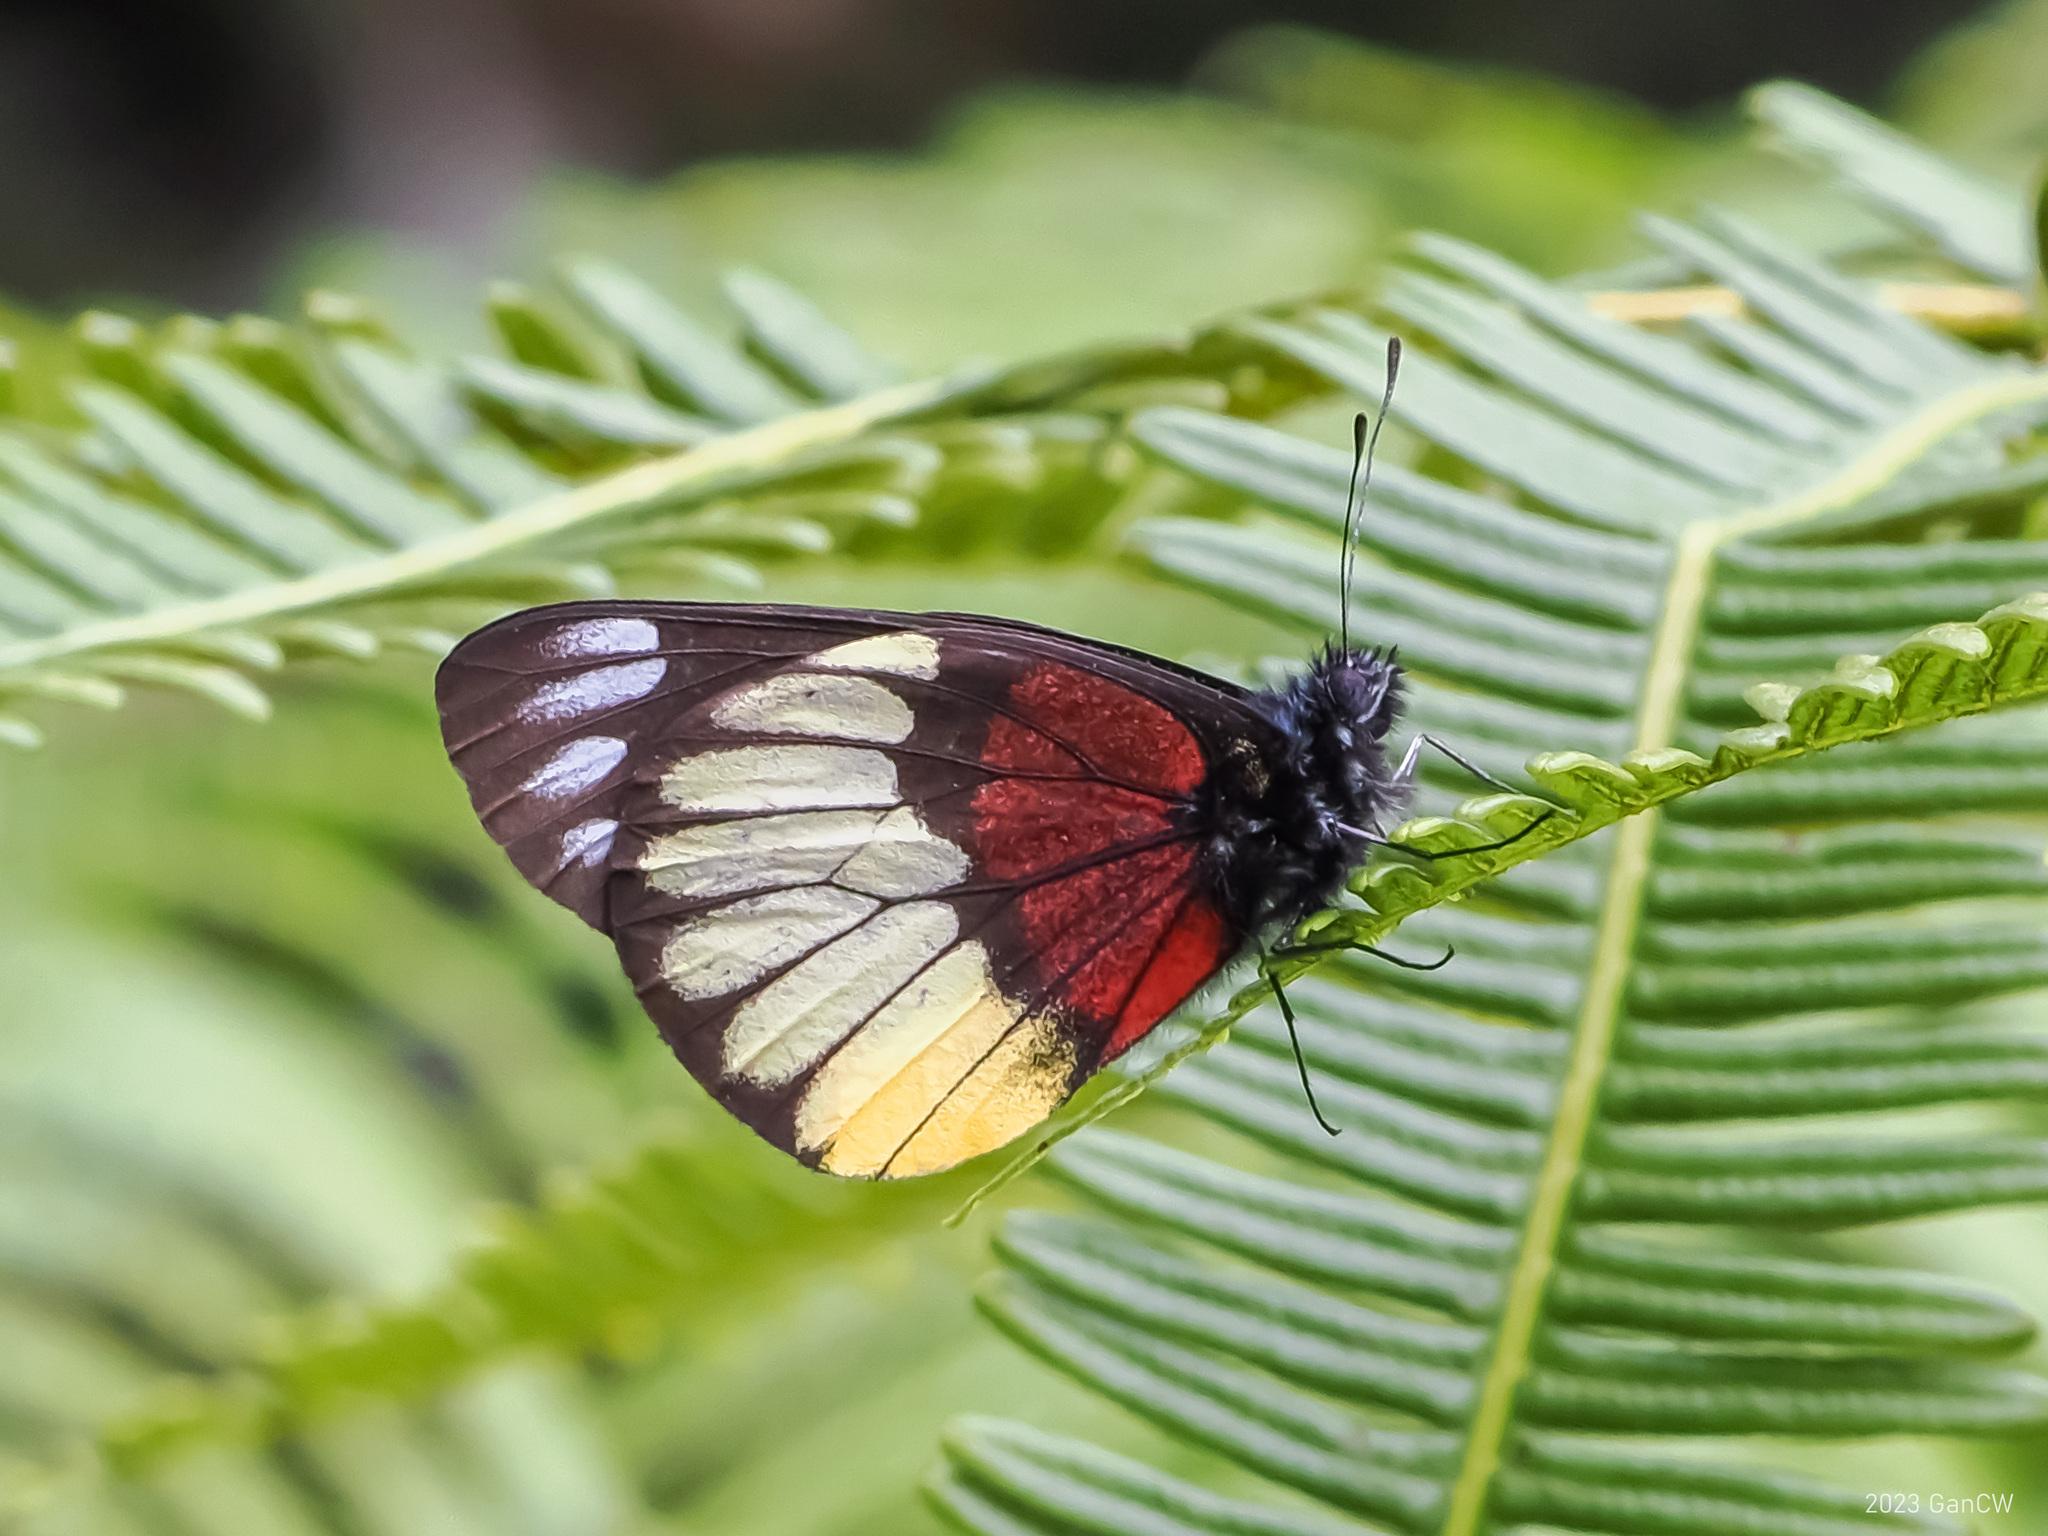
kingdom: Animalia
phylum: Arthropoda
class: Insecta
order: Lepidoptera
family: Pieridae
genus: Delias
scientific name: Delias crithoe
